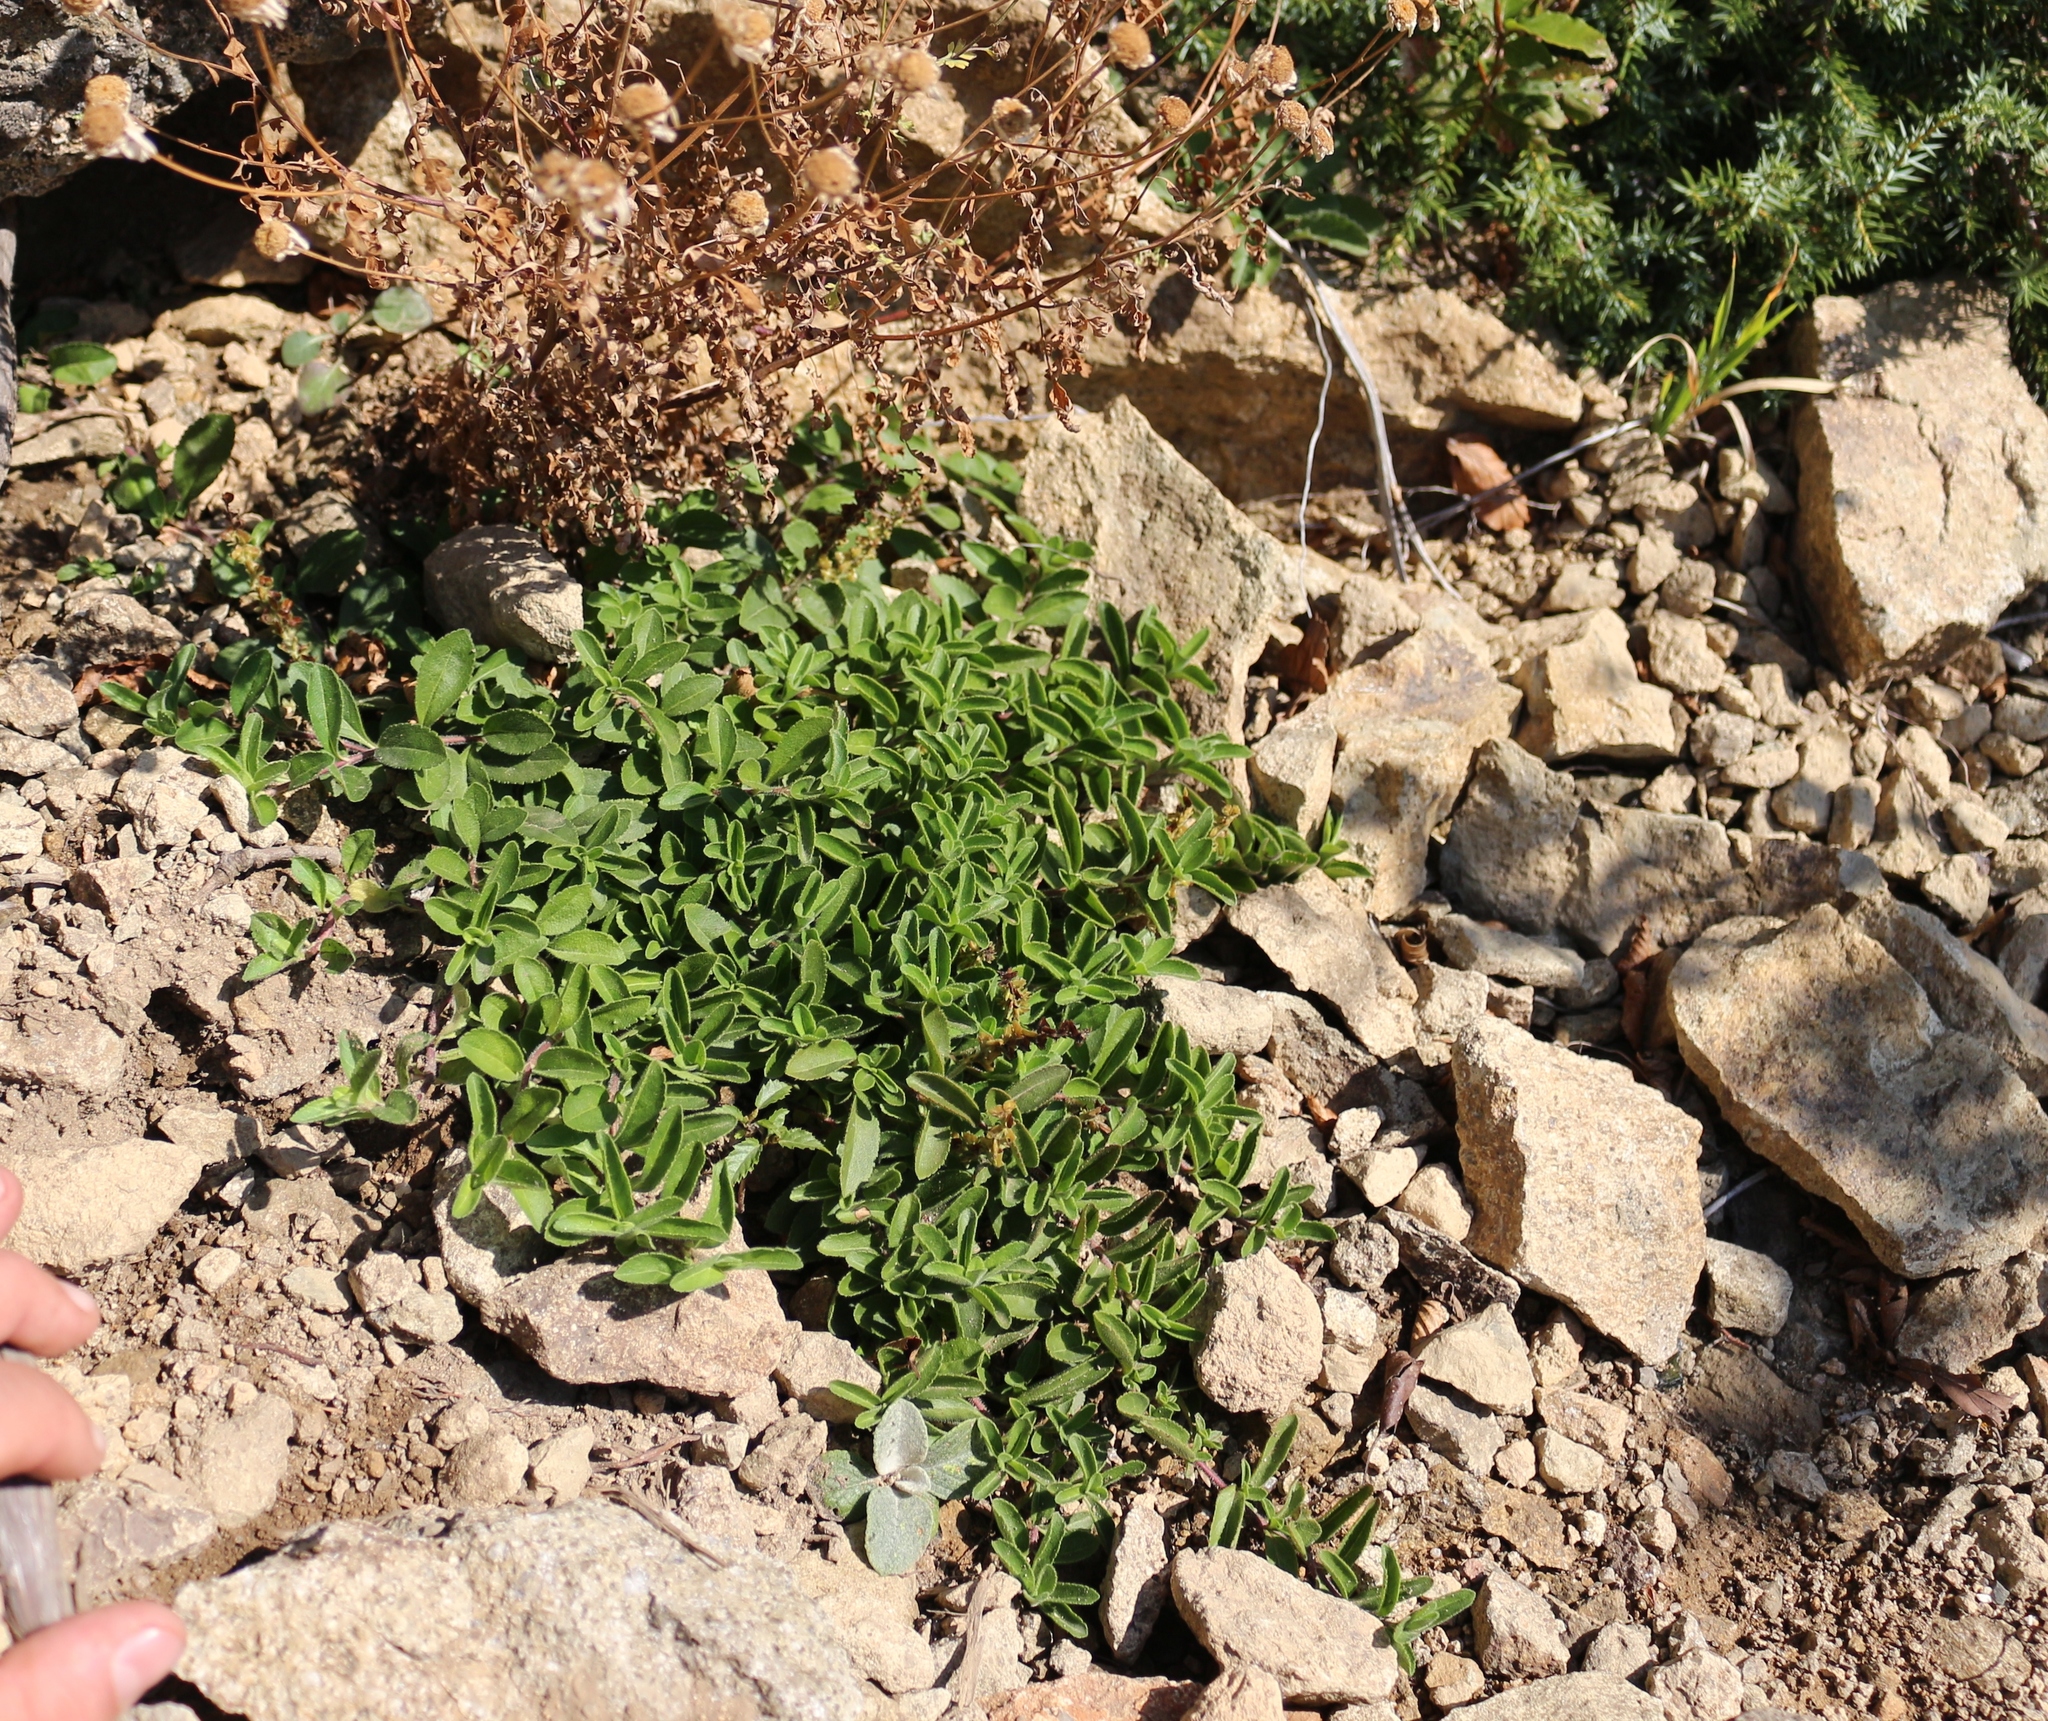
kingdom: Plantae
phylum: Tracheophyta
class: Magnoliopsida
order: Lamiales
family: Plantaginaceae
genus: Veronica
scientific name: Veronica officinalis
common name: Common speedwell
